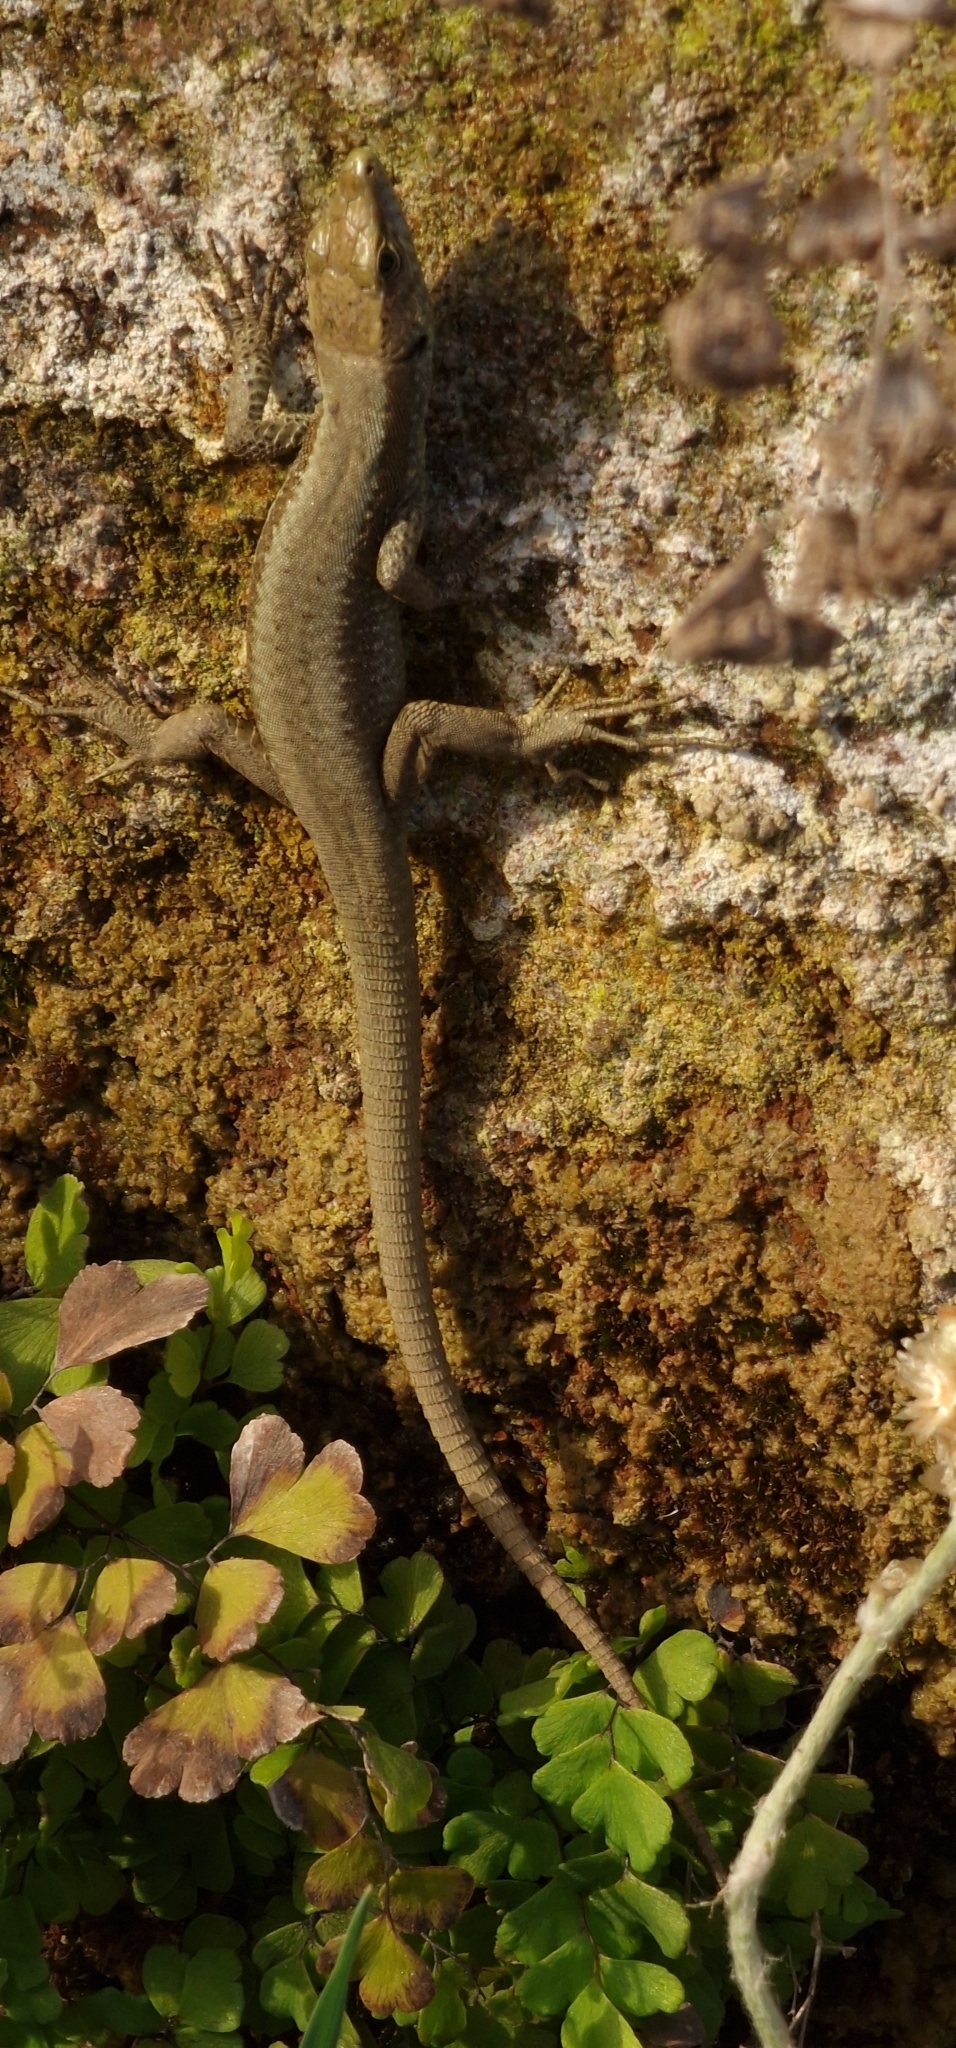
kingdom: Animalia
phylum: Chordata
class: Squamata
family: Lacertidae
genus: Teira
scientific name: Teira dugesii
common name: Madeira lizard
